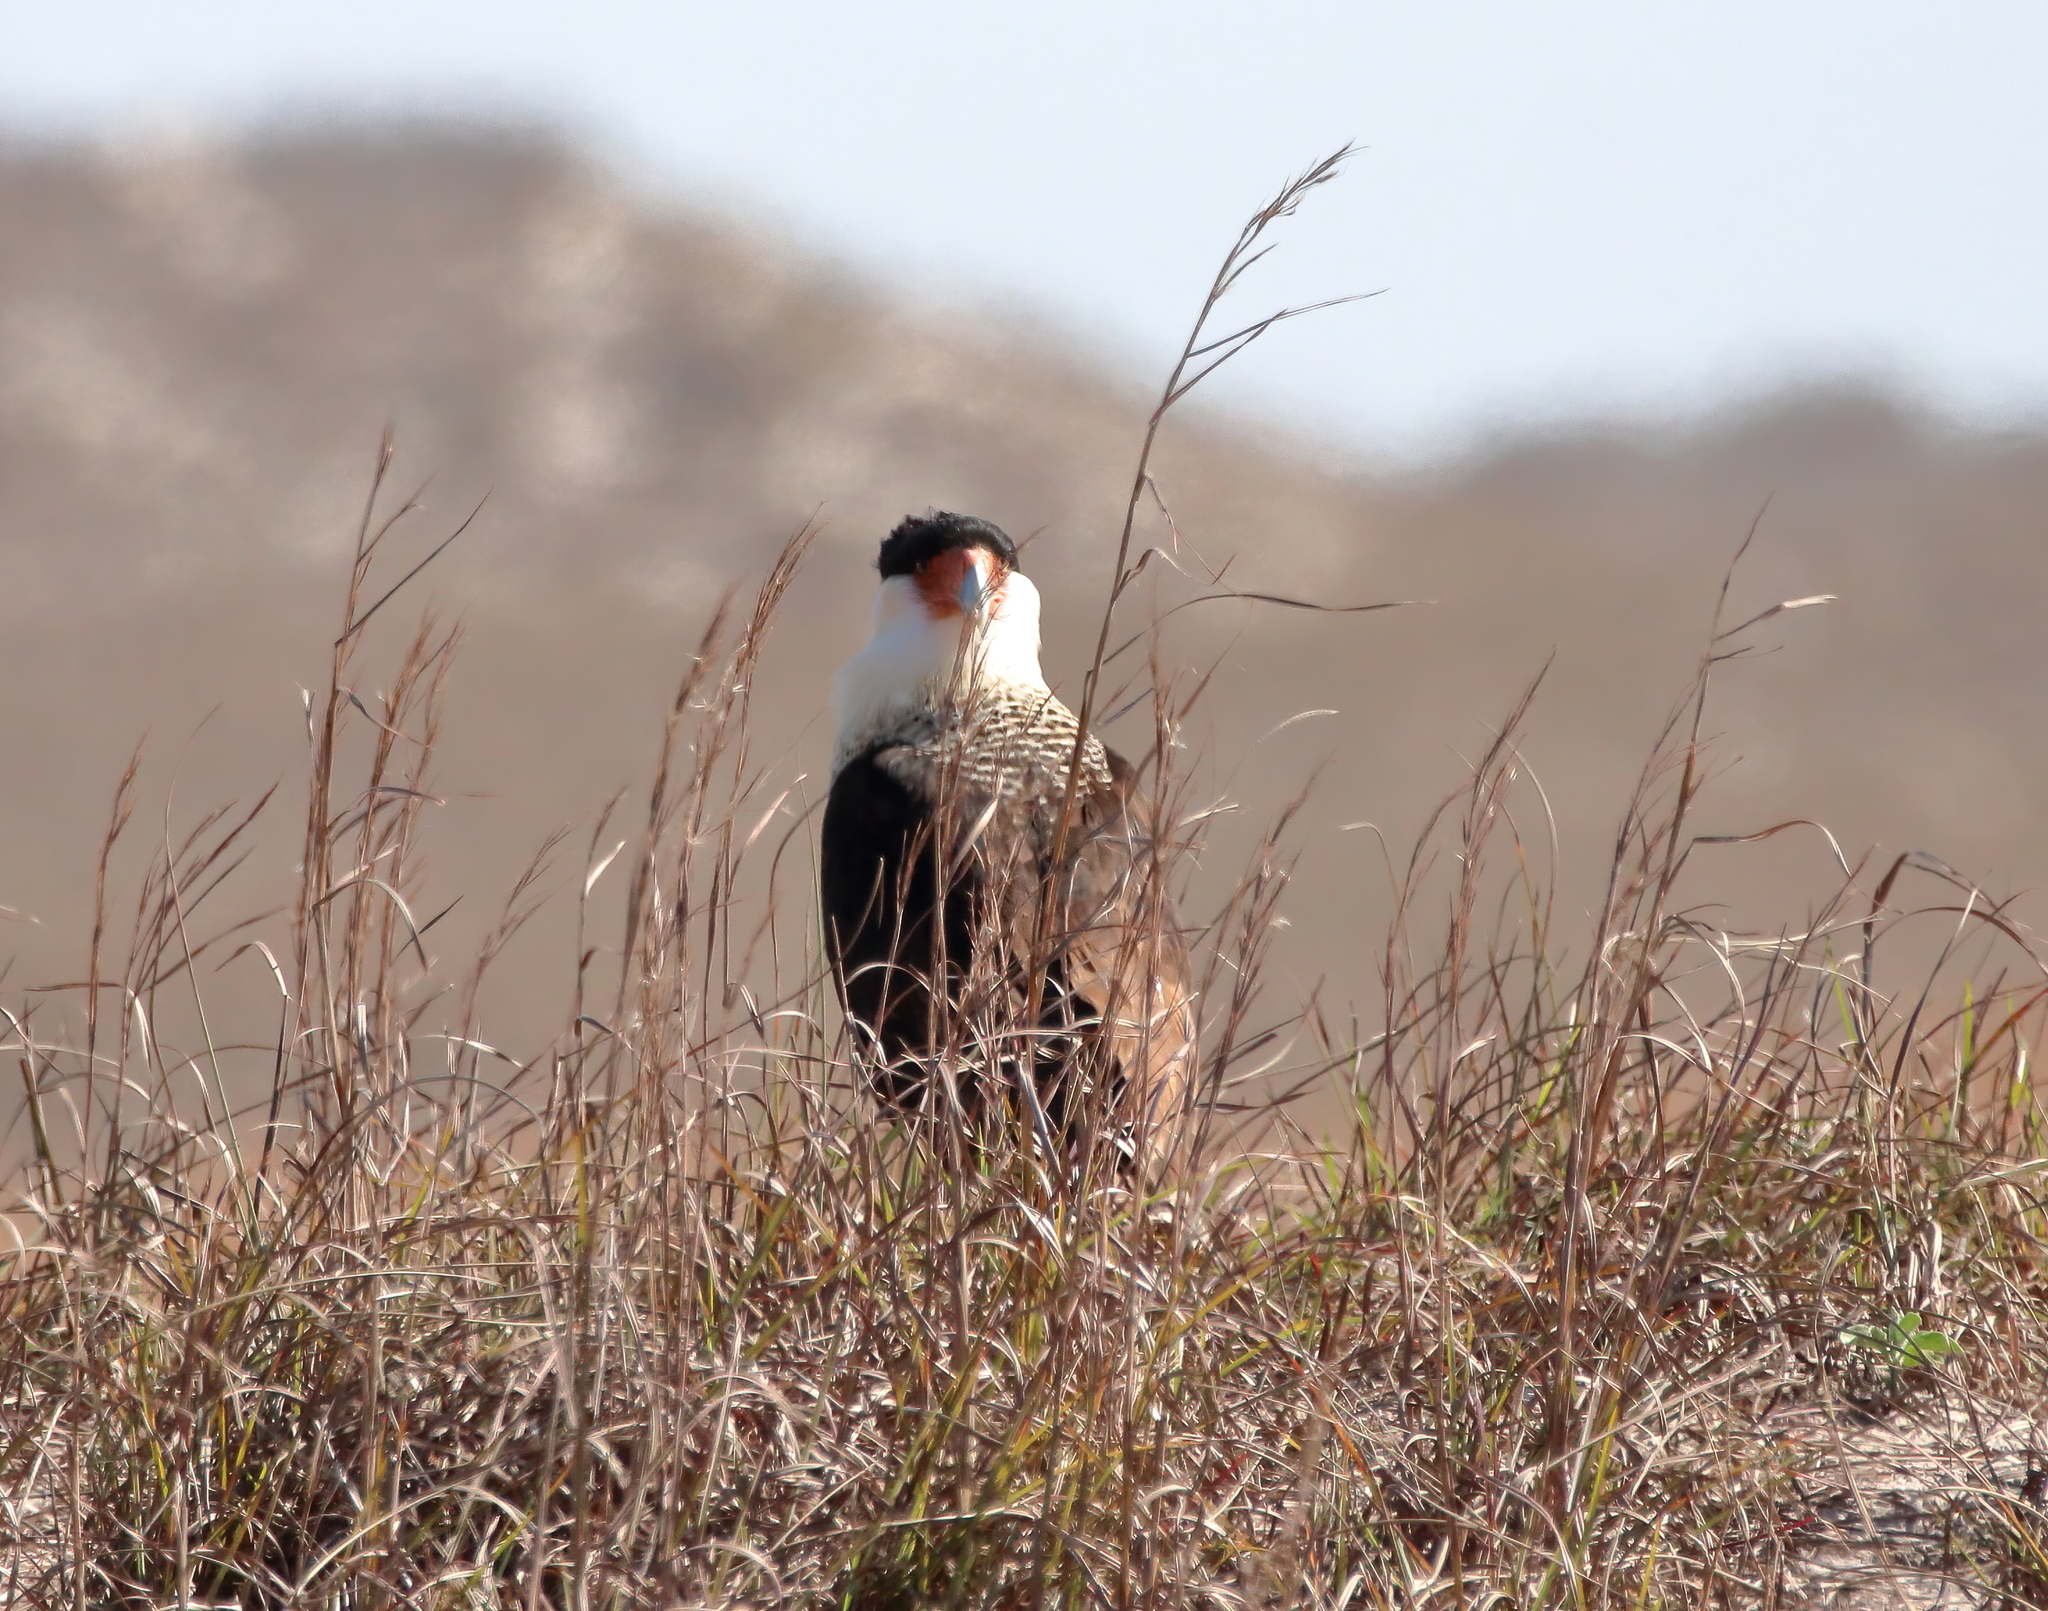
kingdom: Animalia
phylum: Chordata
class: Aves
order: Falconiformes
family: Falconidae
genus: Caracara
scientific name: Caracara plancus
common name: Southern caracara
